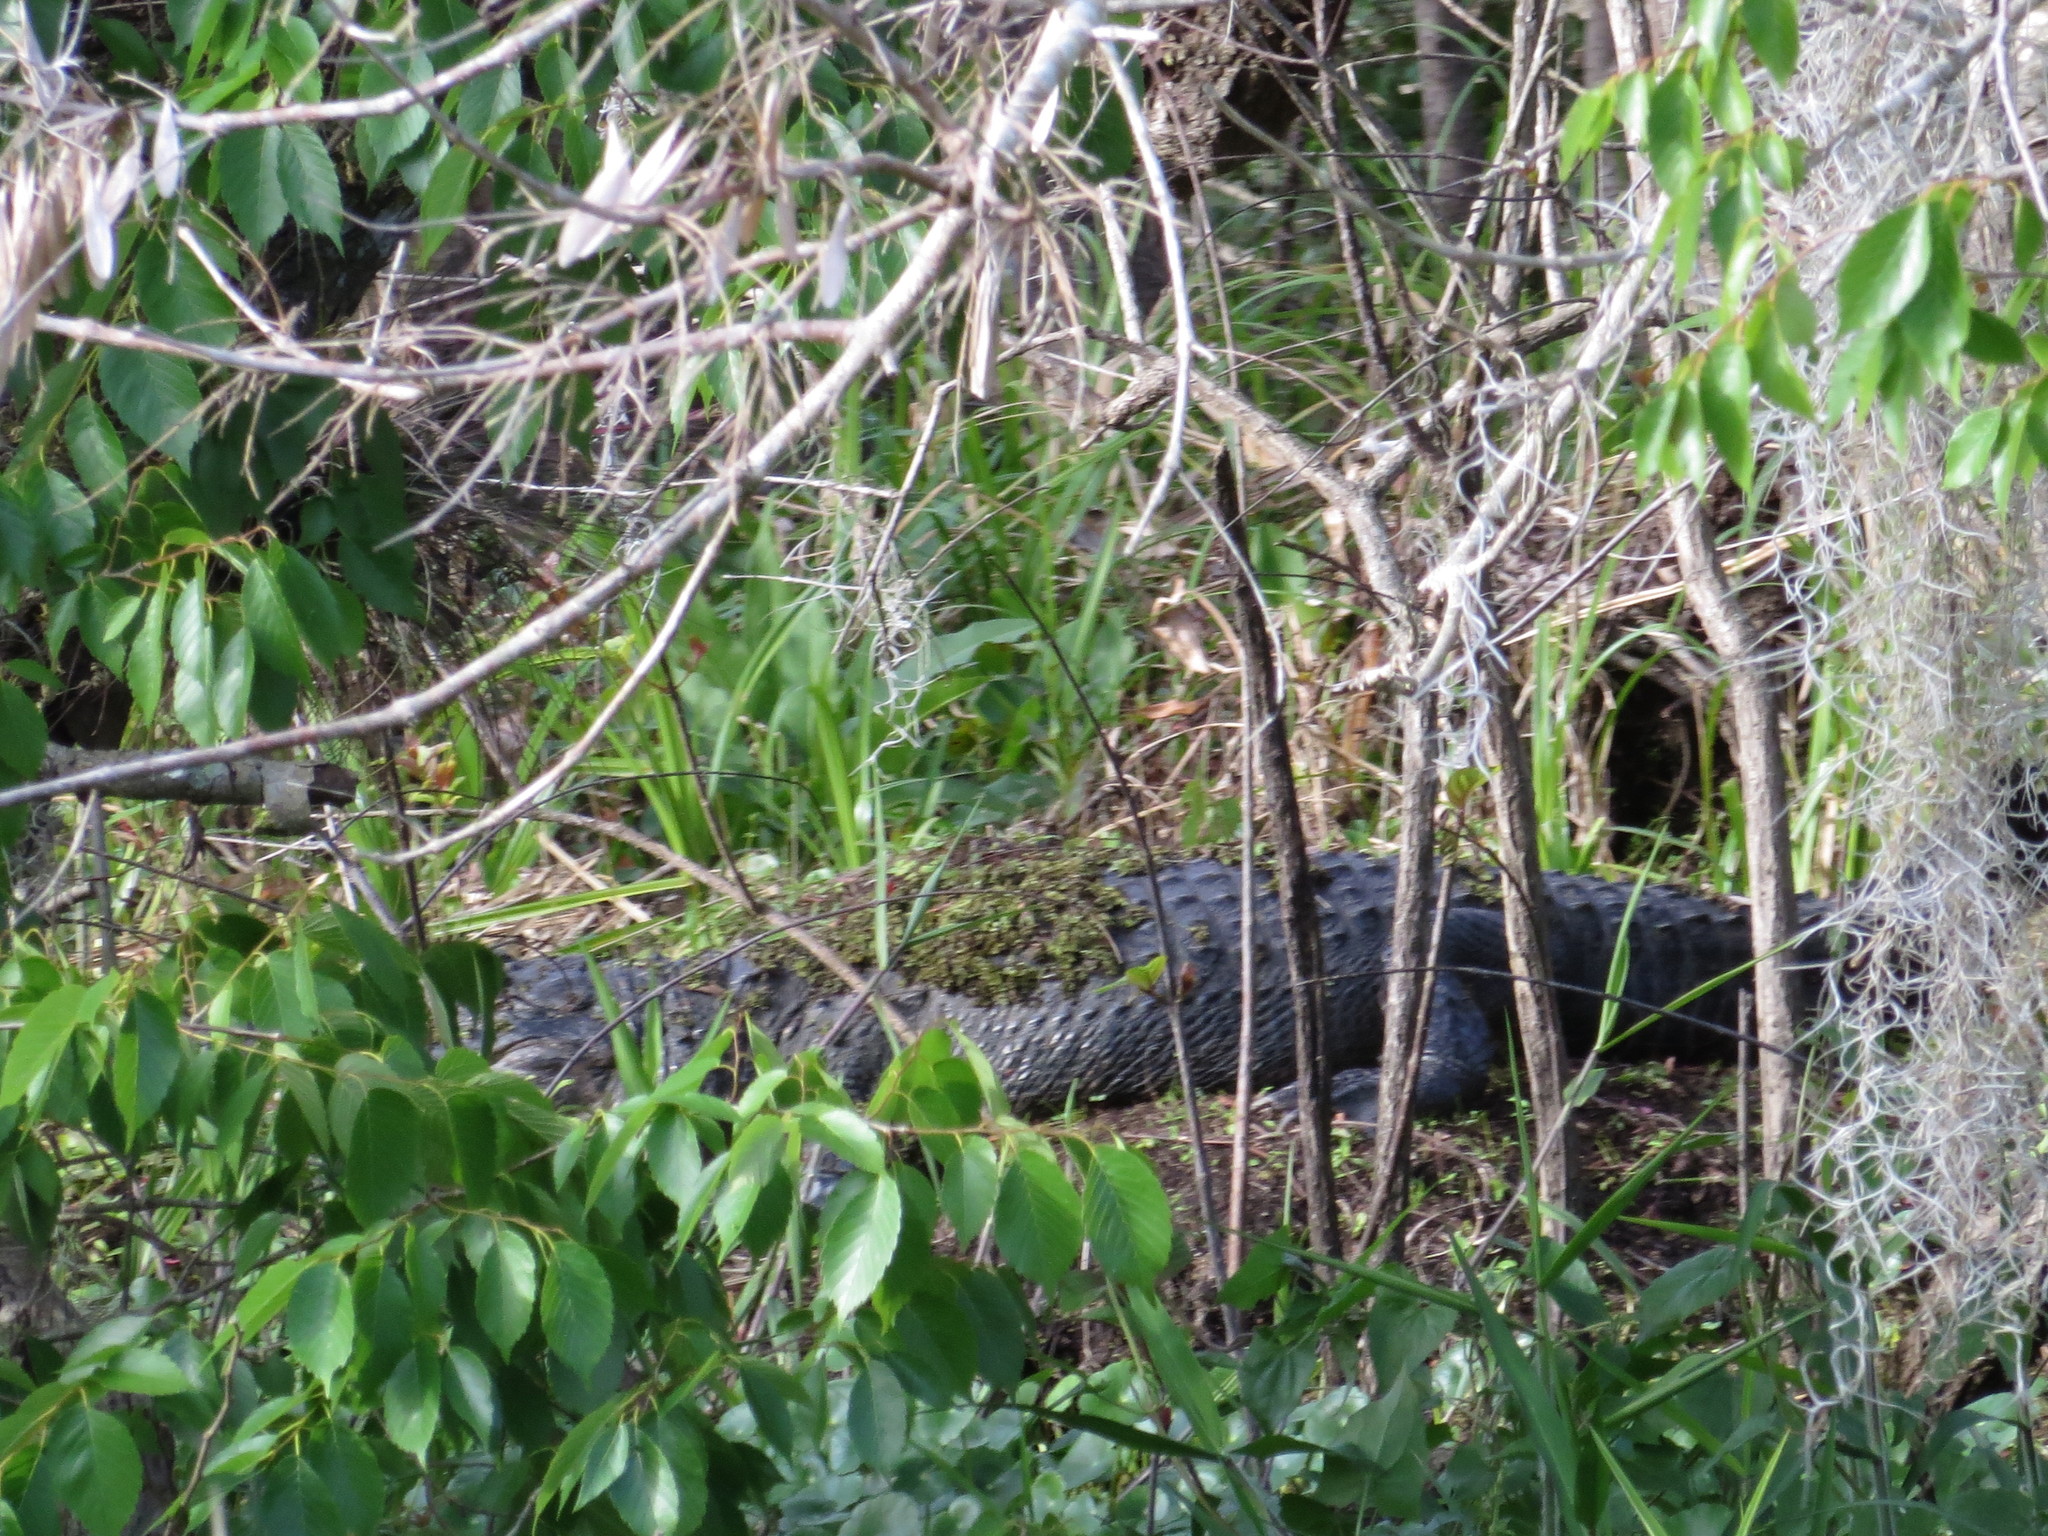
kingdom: Animalia
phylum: Chordata
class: Crocodylia
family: Alligatoridae
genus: Alligator
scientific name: Alligator mississippiensis
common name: American alligator
